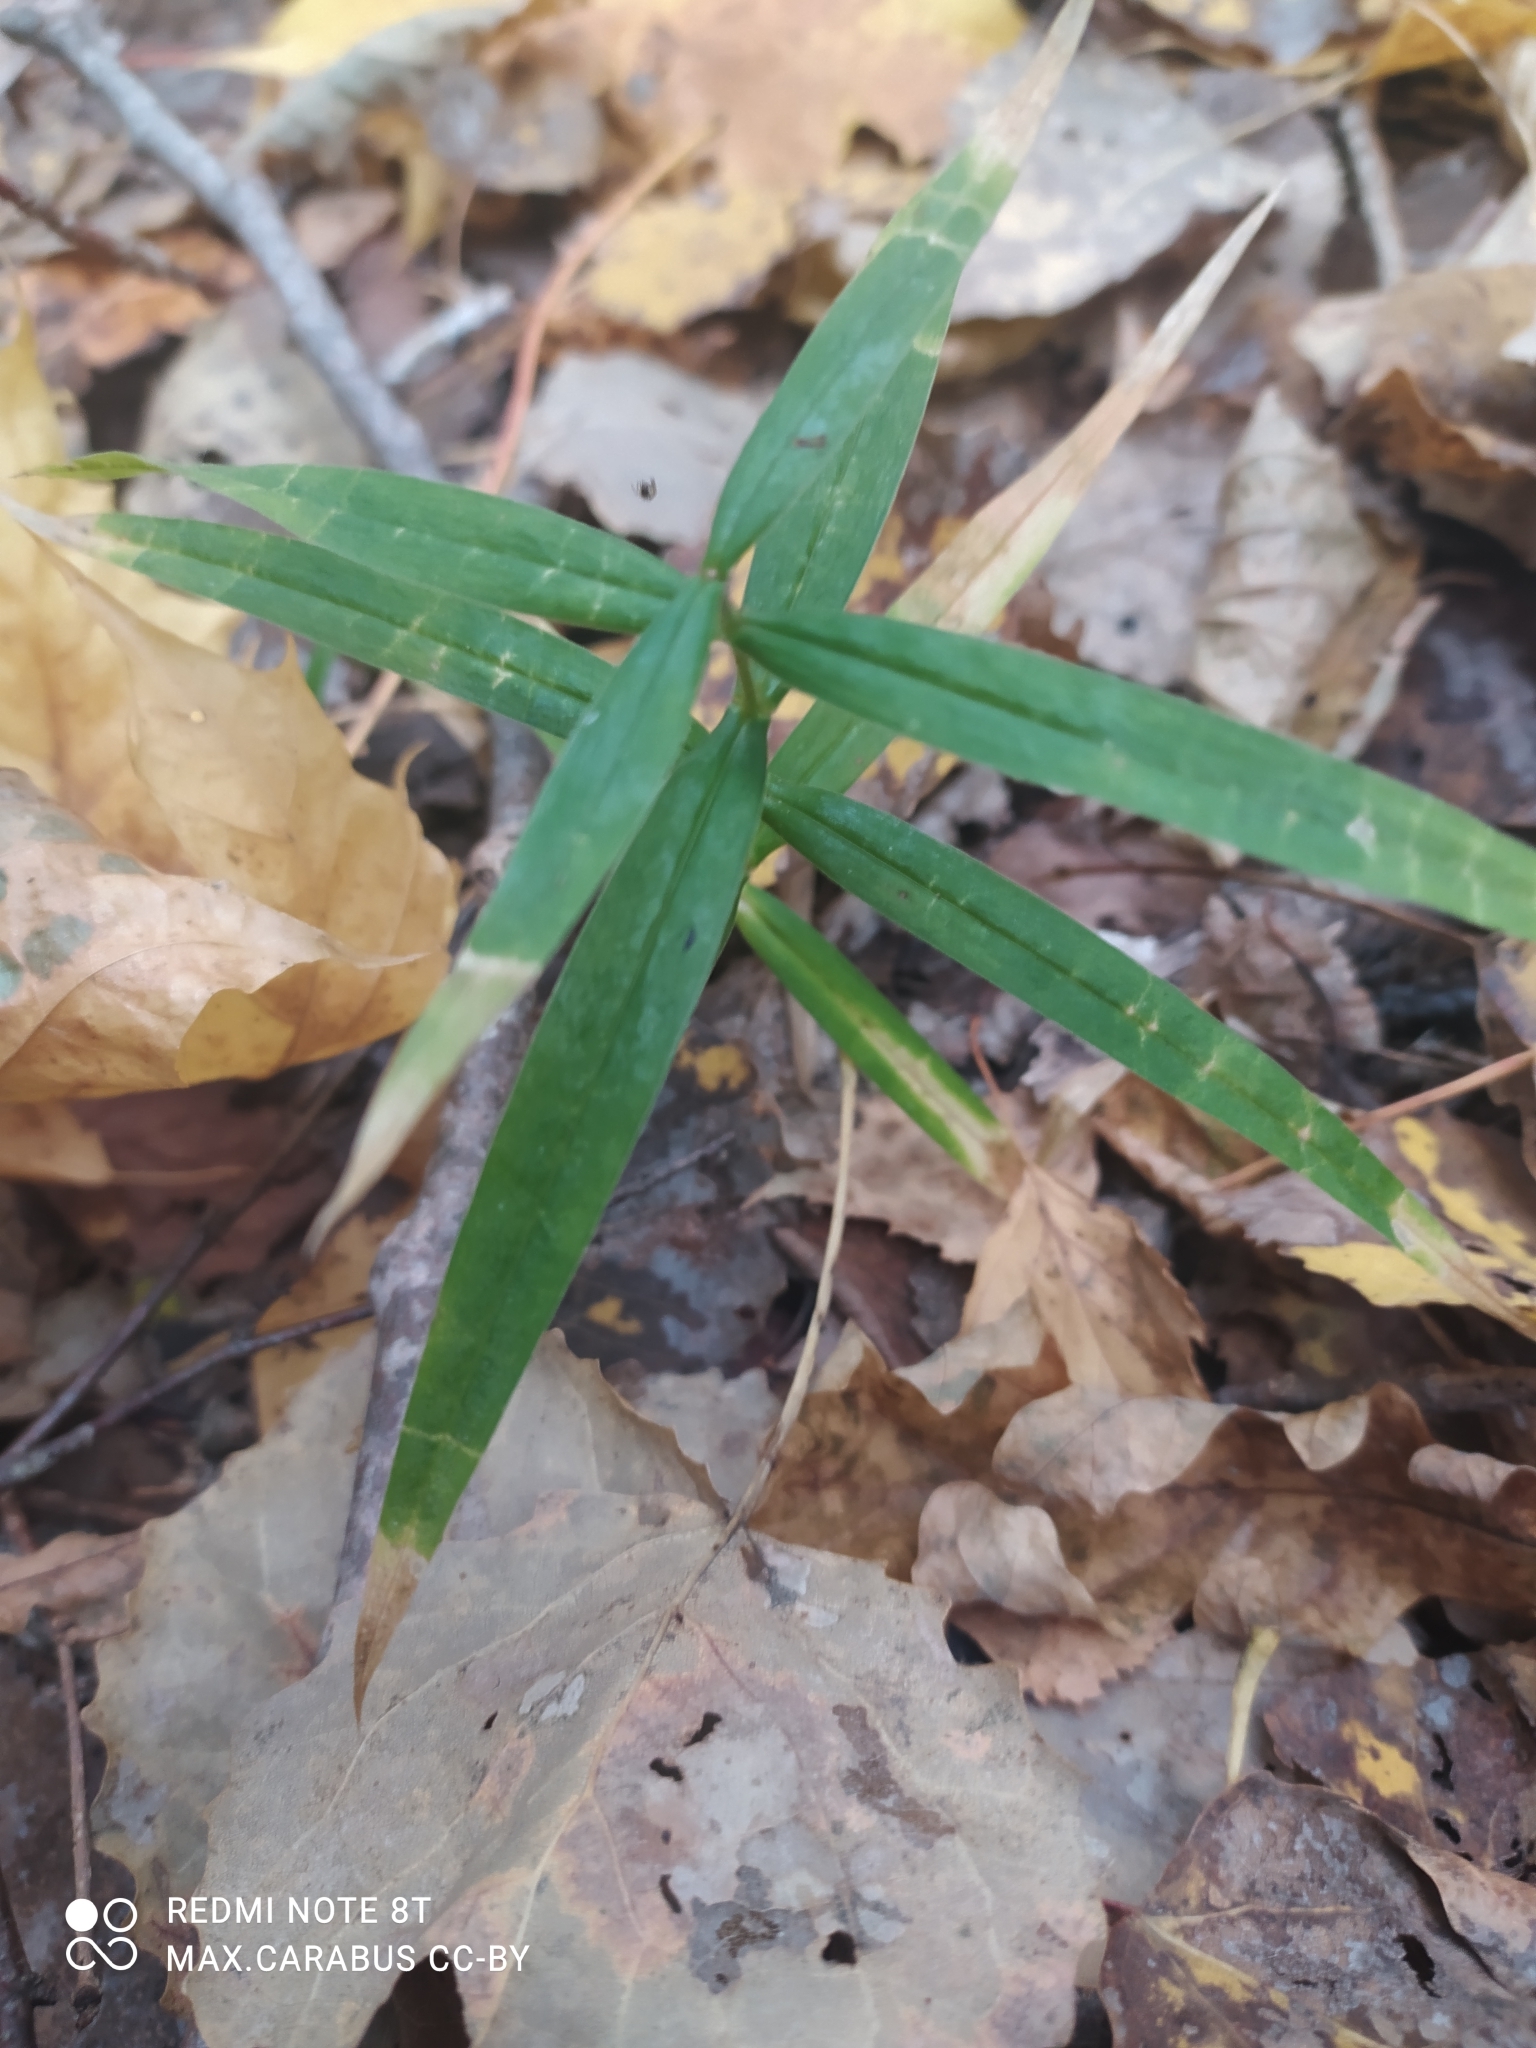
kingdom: Plantae
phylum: Tracheophyta
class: Magnoliopsida
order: Caryophyllales
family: Caryophyllaceae
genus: Rabelera
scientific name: Rabelera holostea
